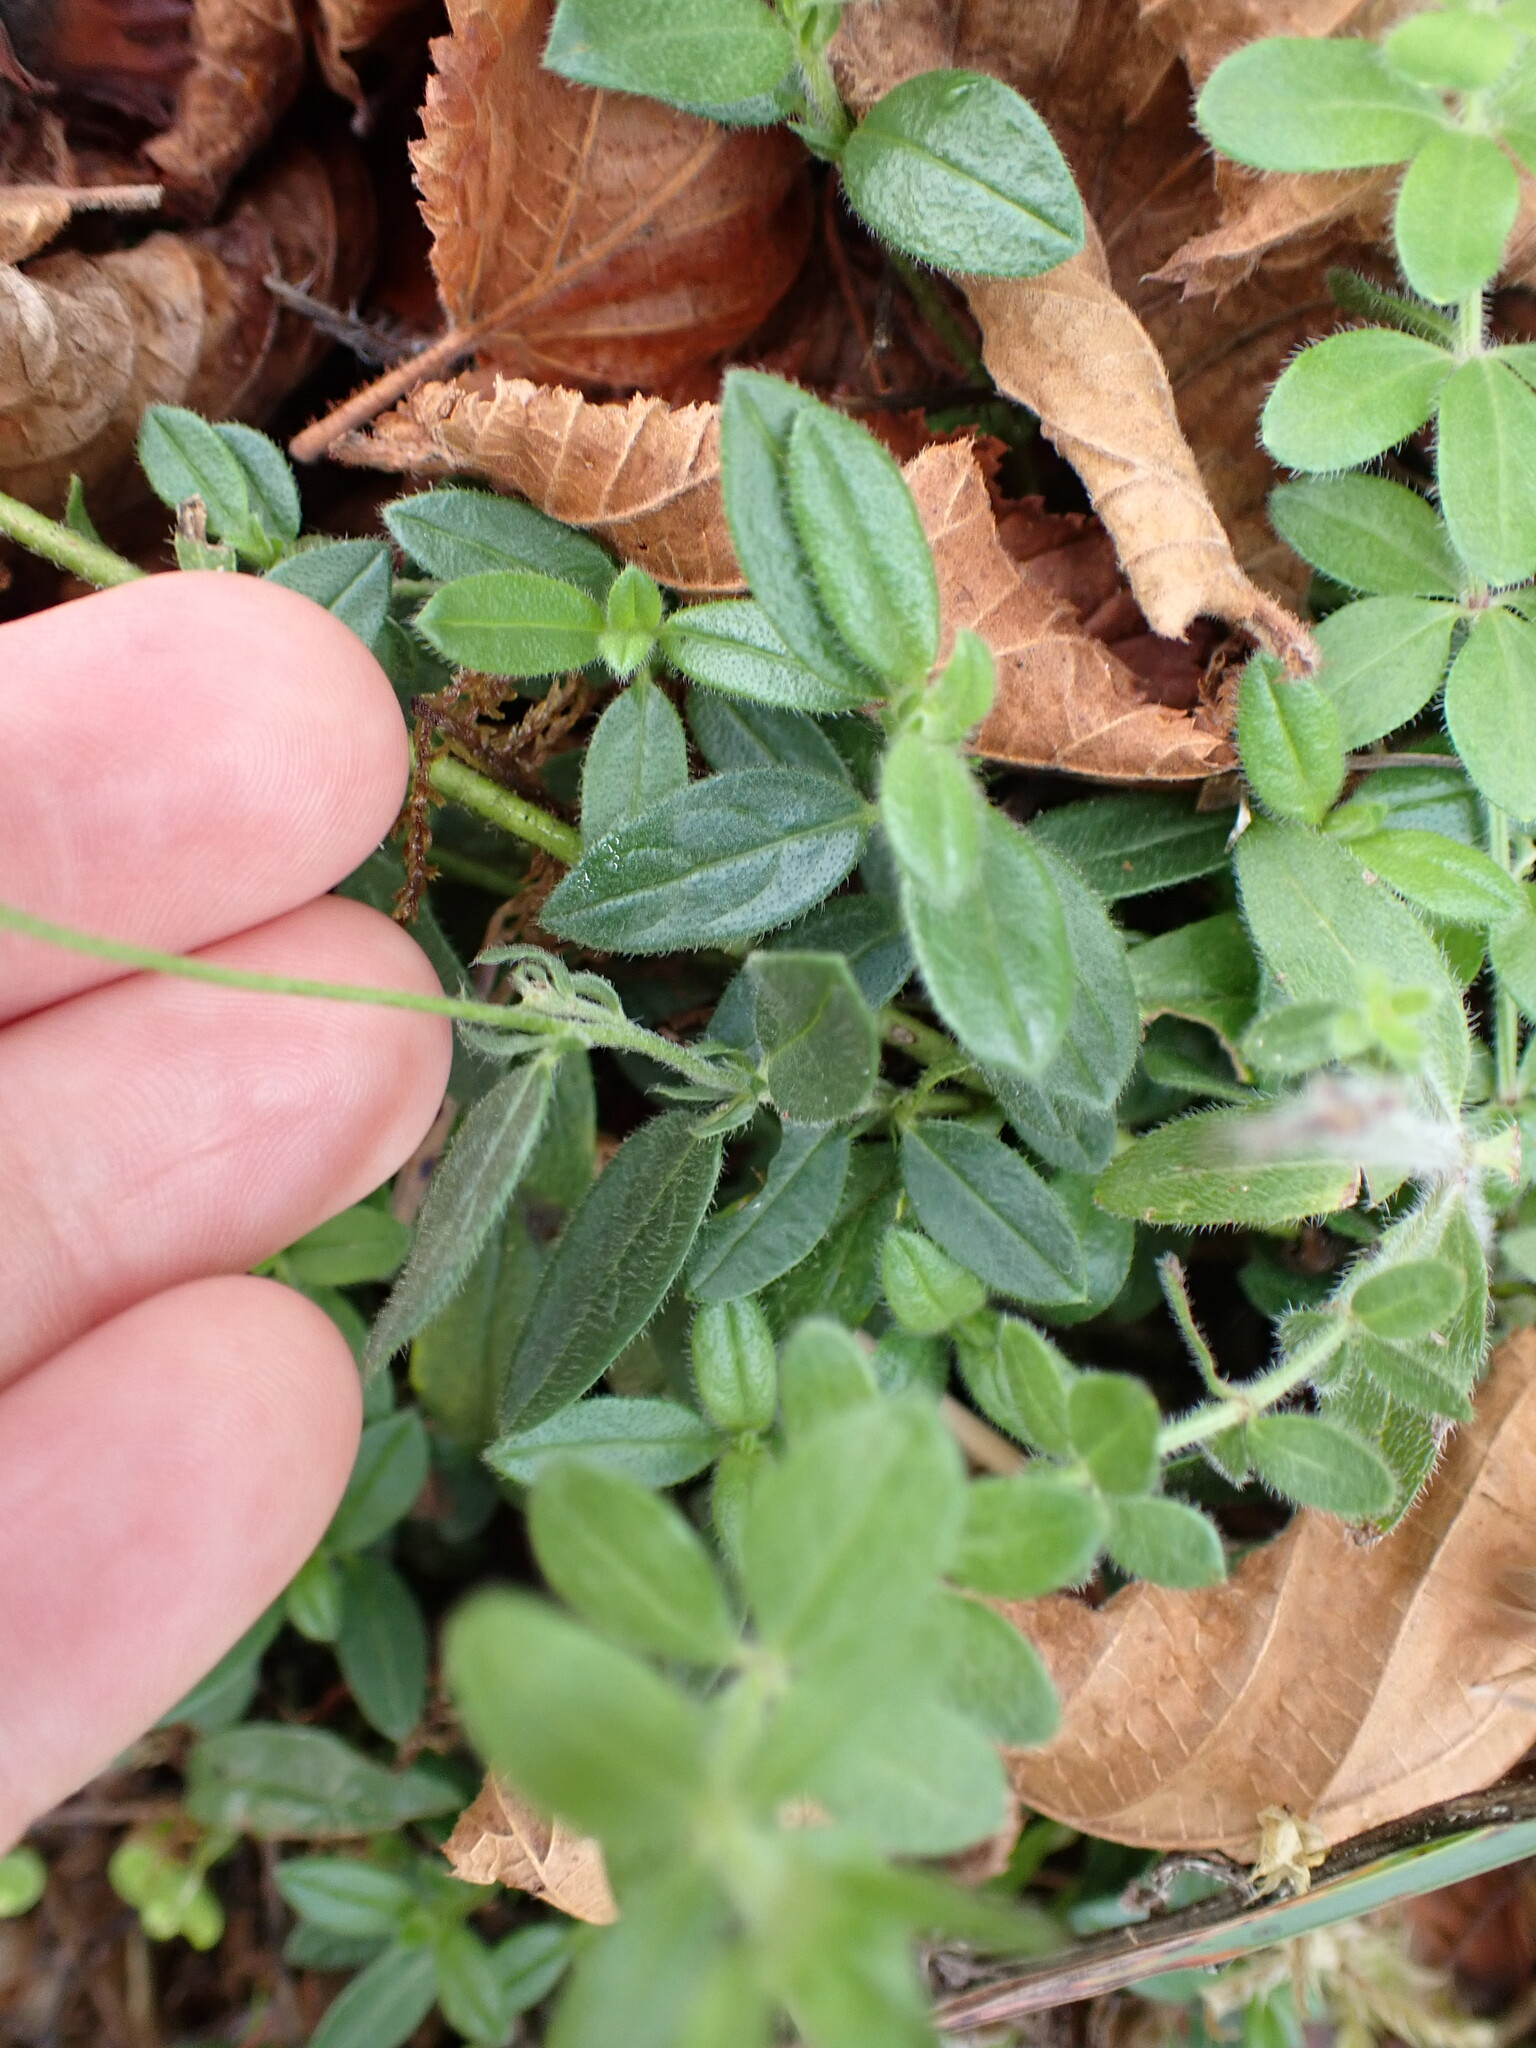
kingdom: Plantae
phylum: Tracheophyta
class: Magnoliopsida
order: Malvales
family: Cistaceae
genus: Helianthemum
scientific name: Helianthemum nummularium
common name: Common rock-rose
